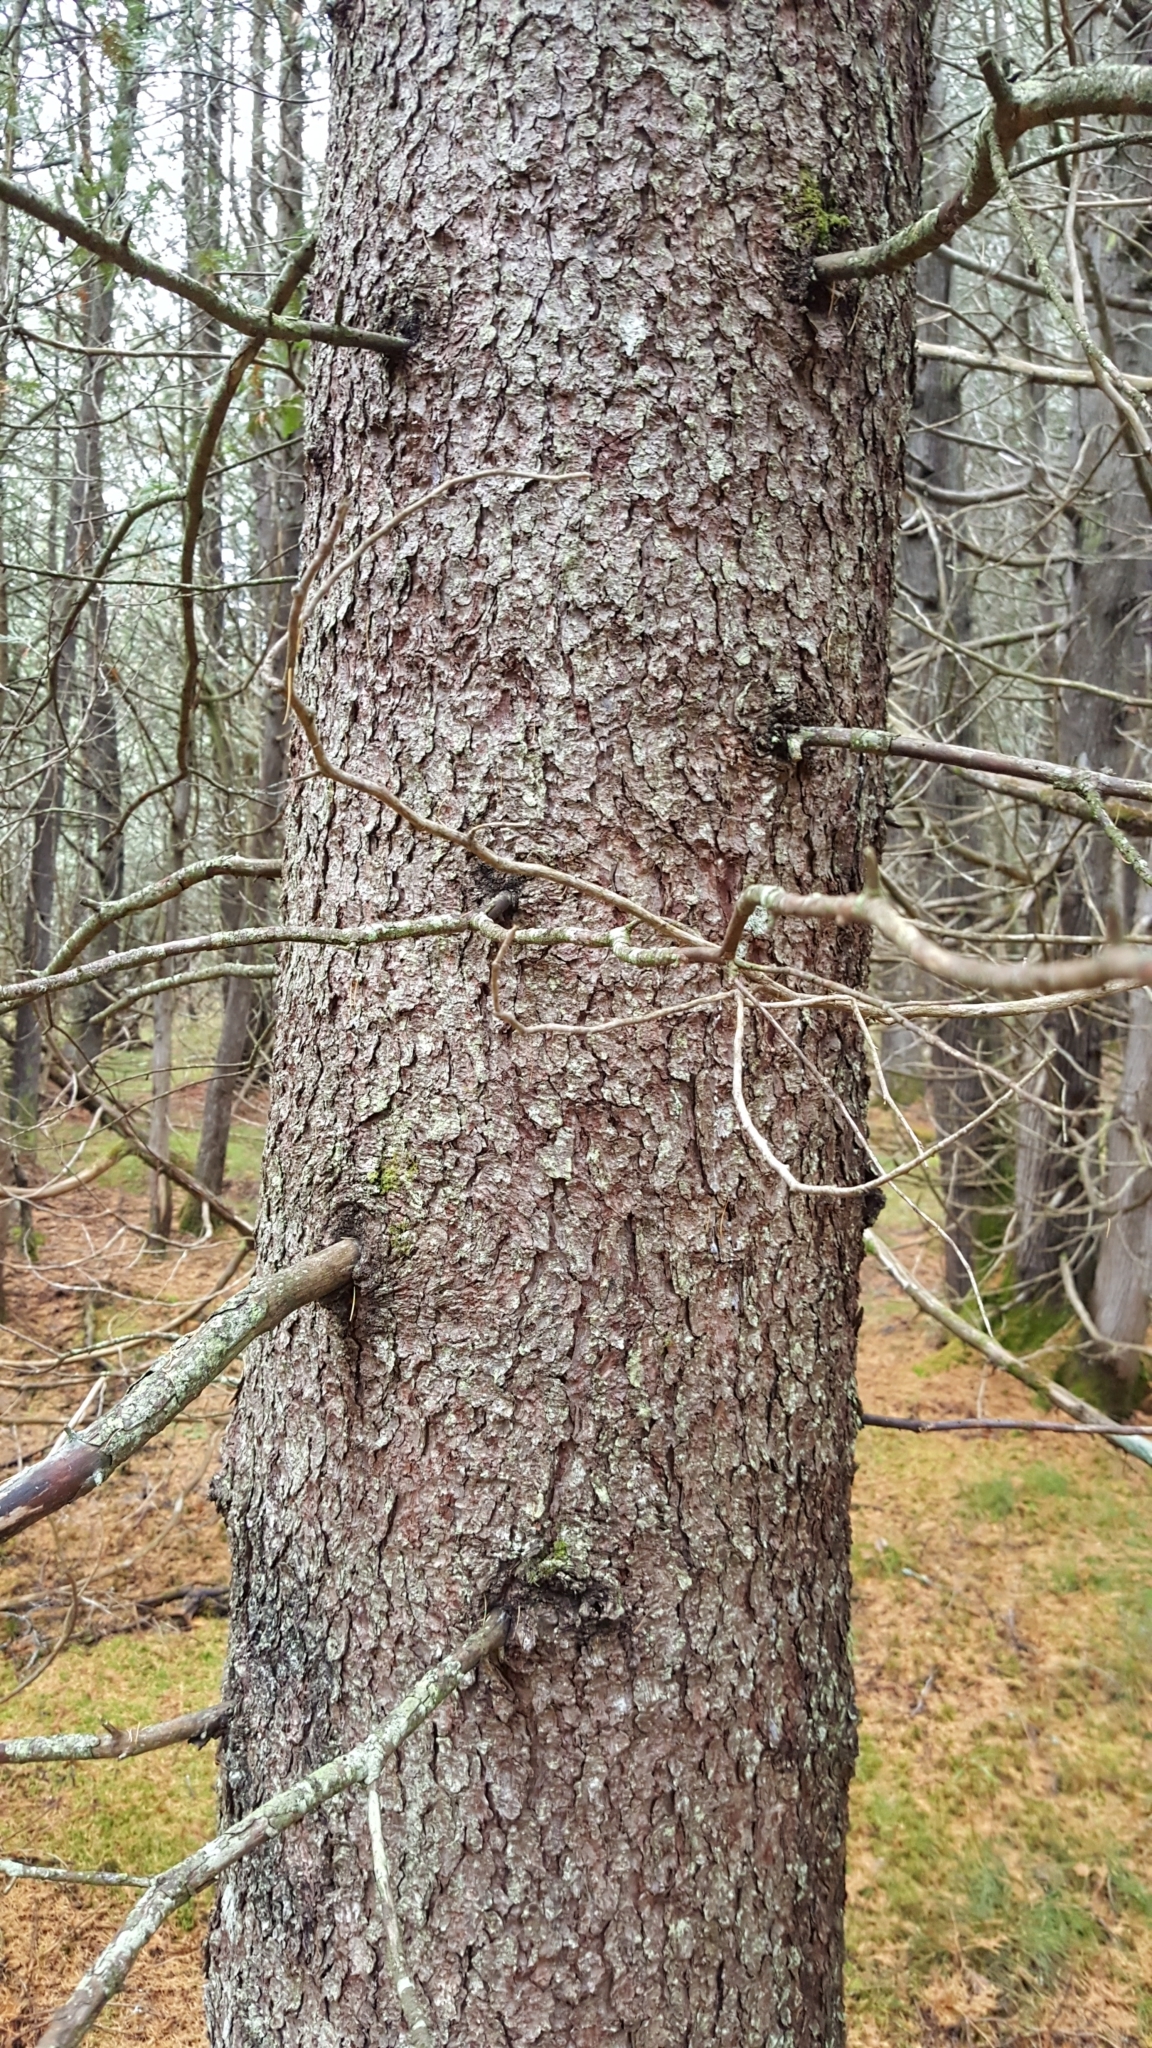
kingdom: Plantae
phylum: Tracheophyta
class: Pinopsida
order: Pinales
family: Pinaceae
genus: Picea
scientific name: Picea glauca
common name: White spruce
